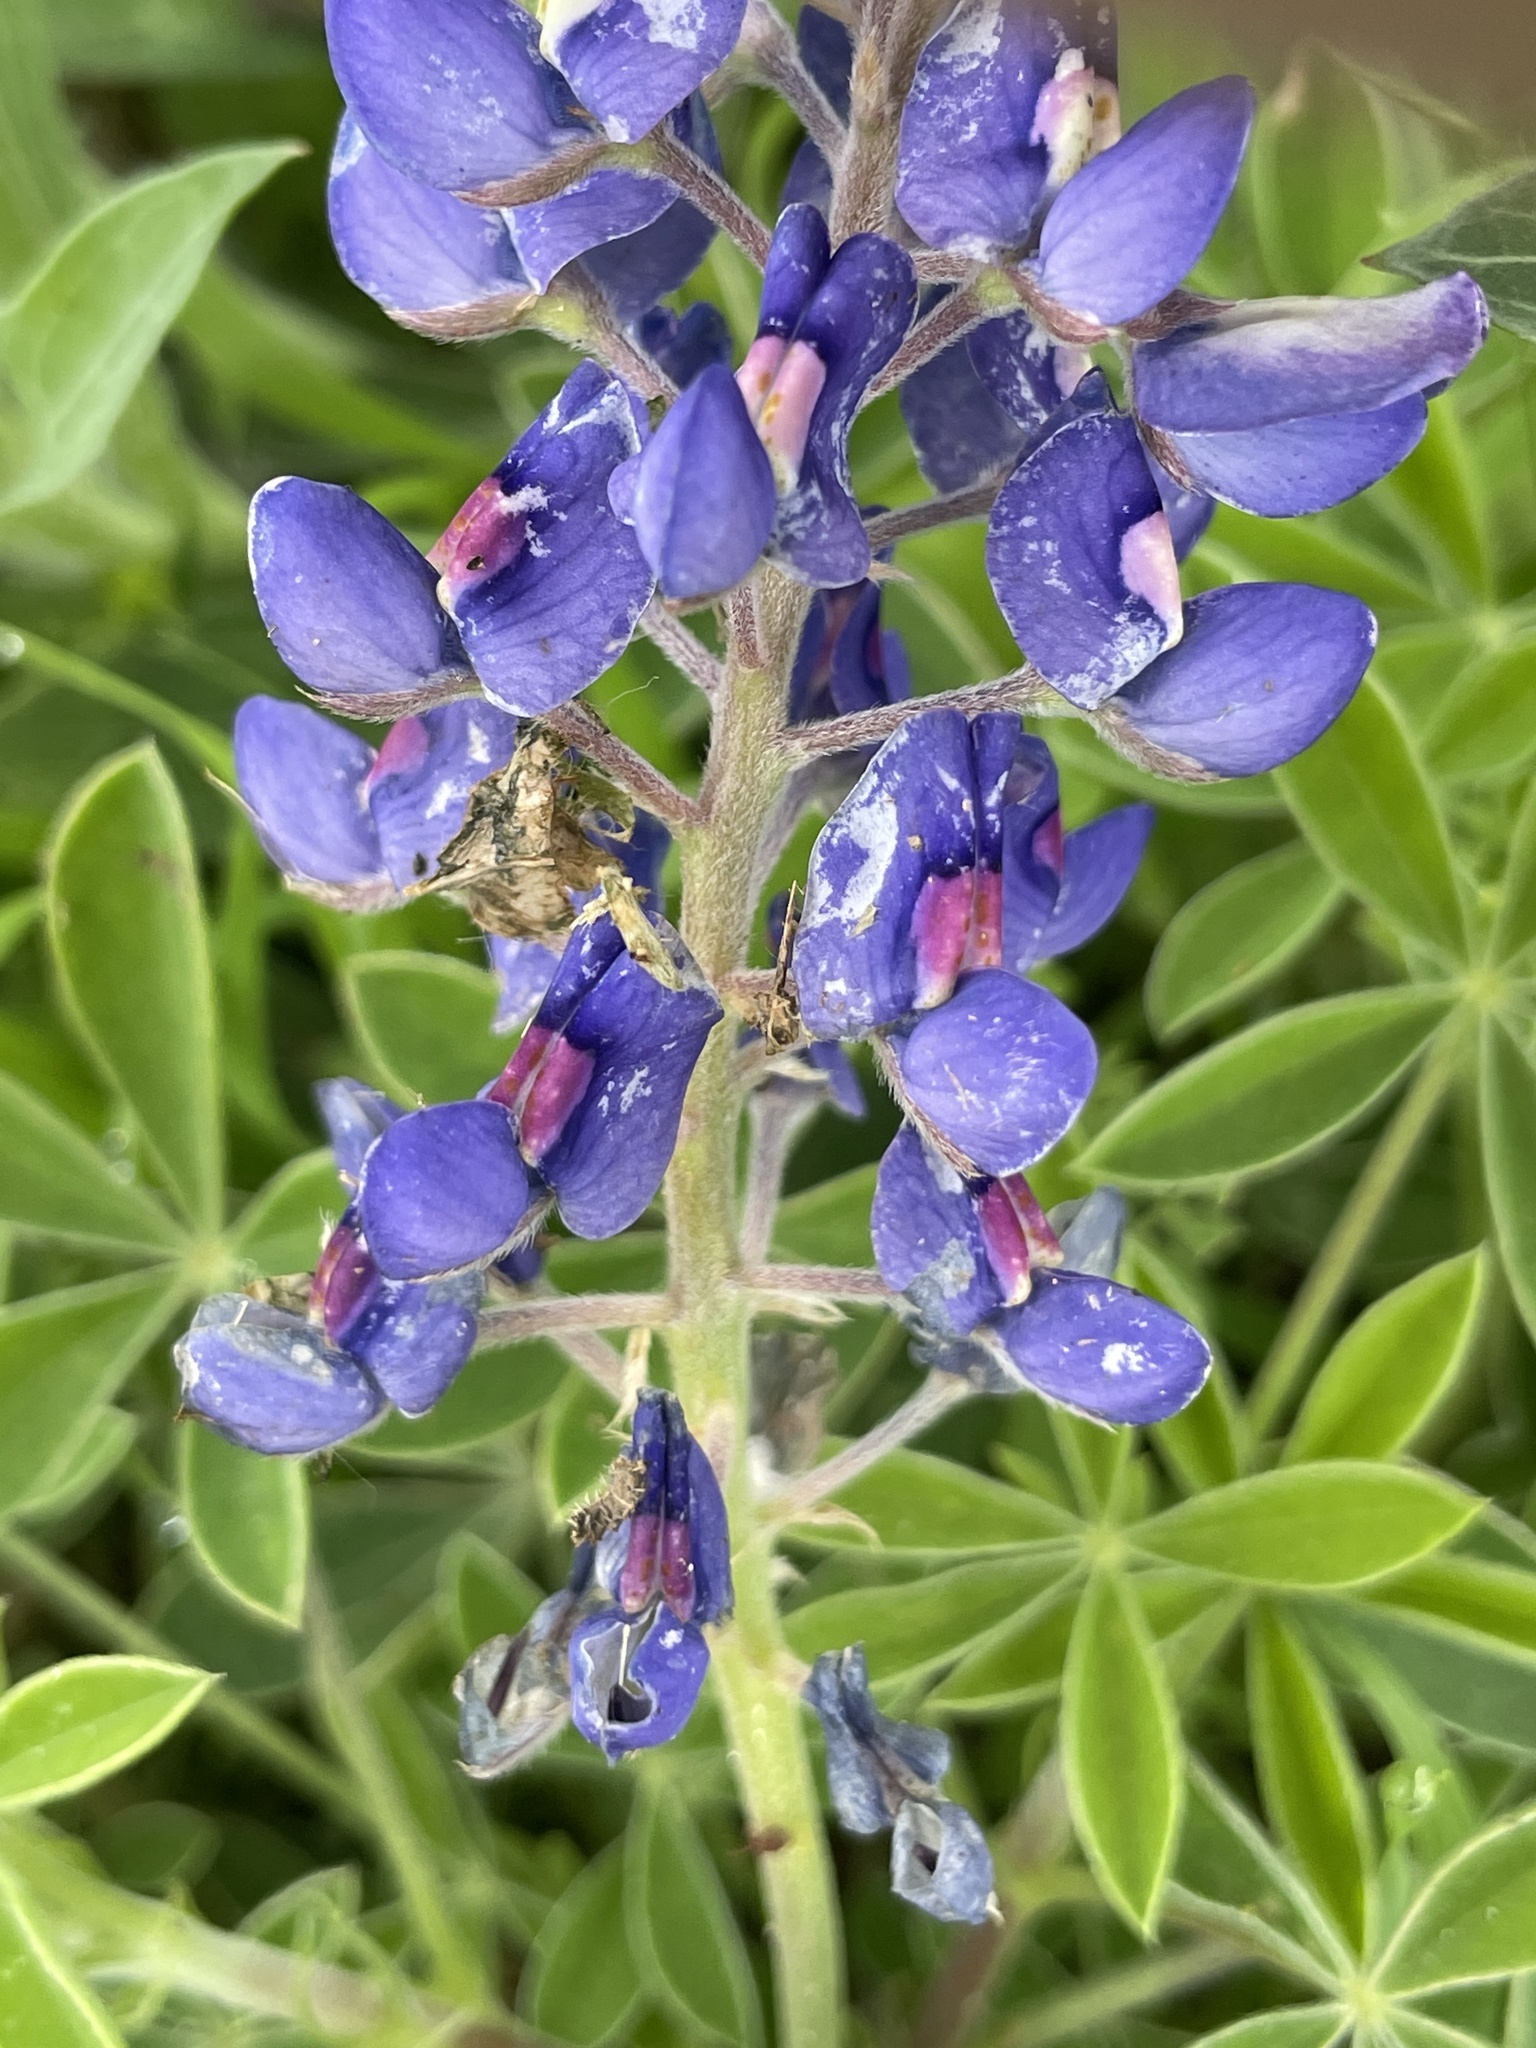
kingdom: Plantae
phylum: Tracheophyta
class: Magnoliopsida
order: Fabales
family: Fabaceae
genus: Lupinus
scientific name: Lupinus texensis
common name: Texas bluebonnet
